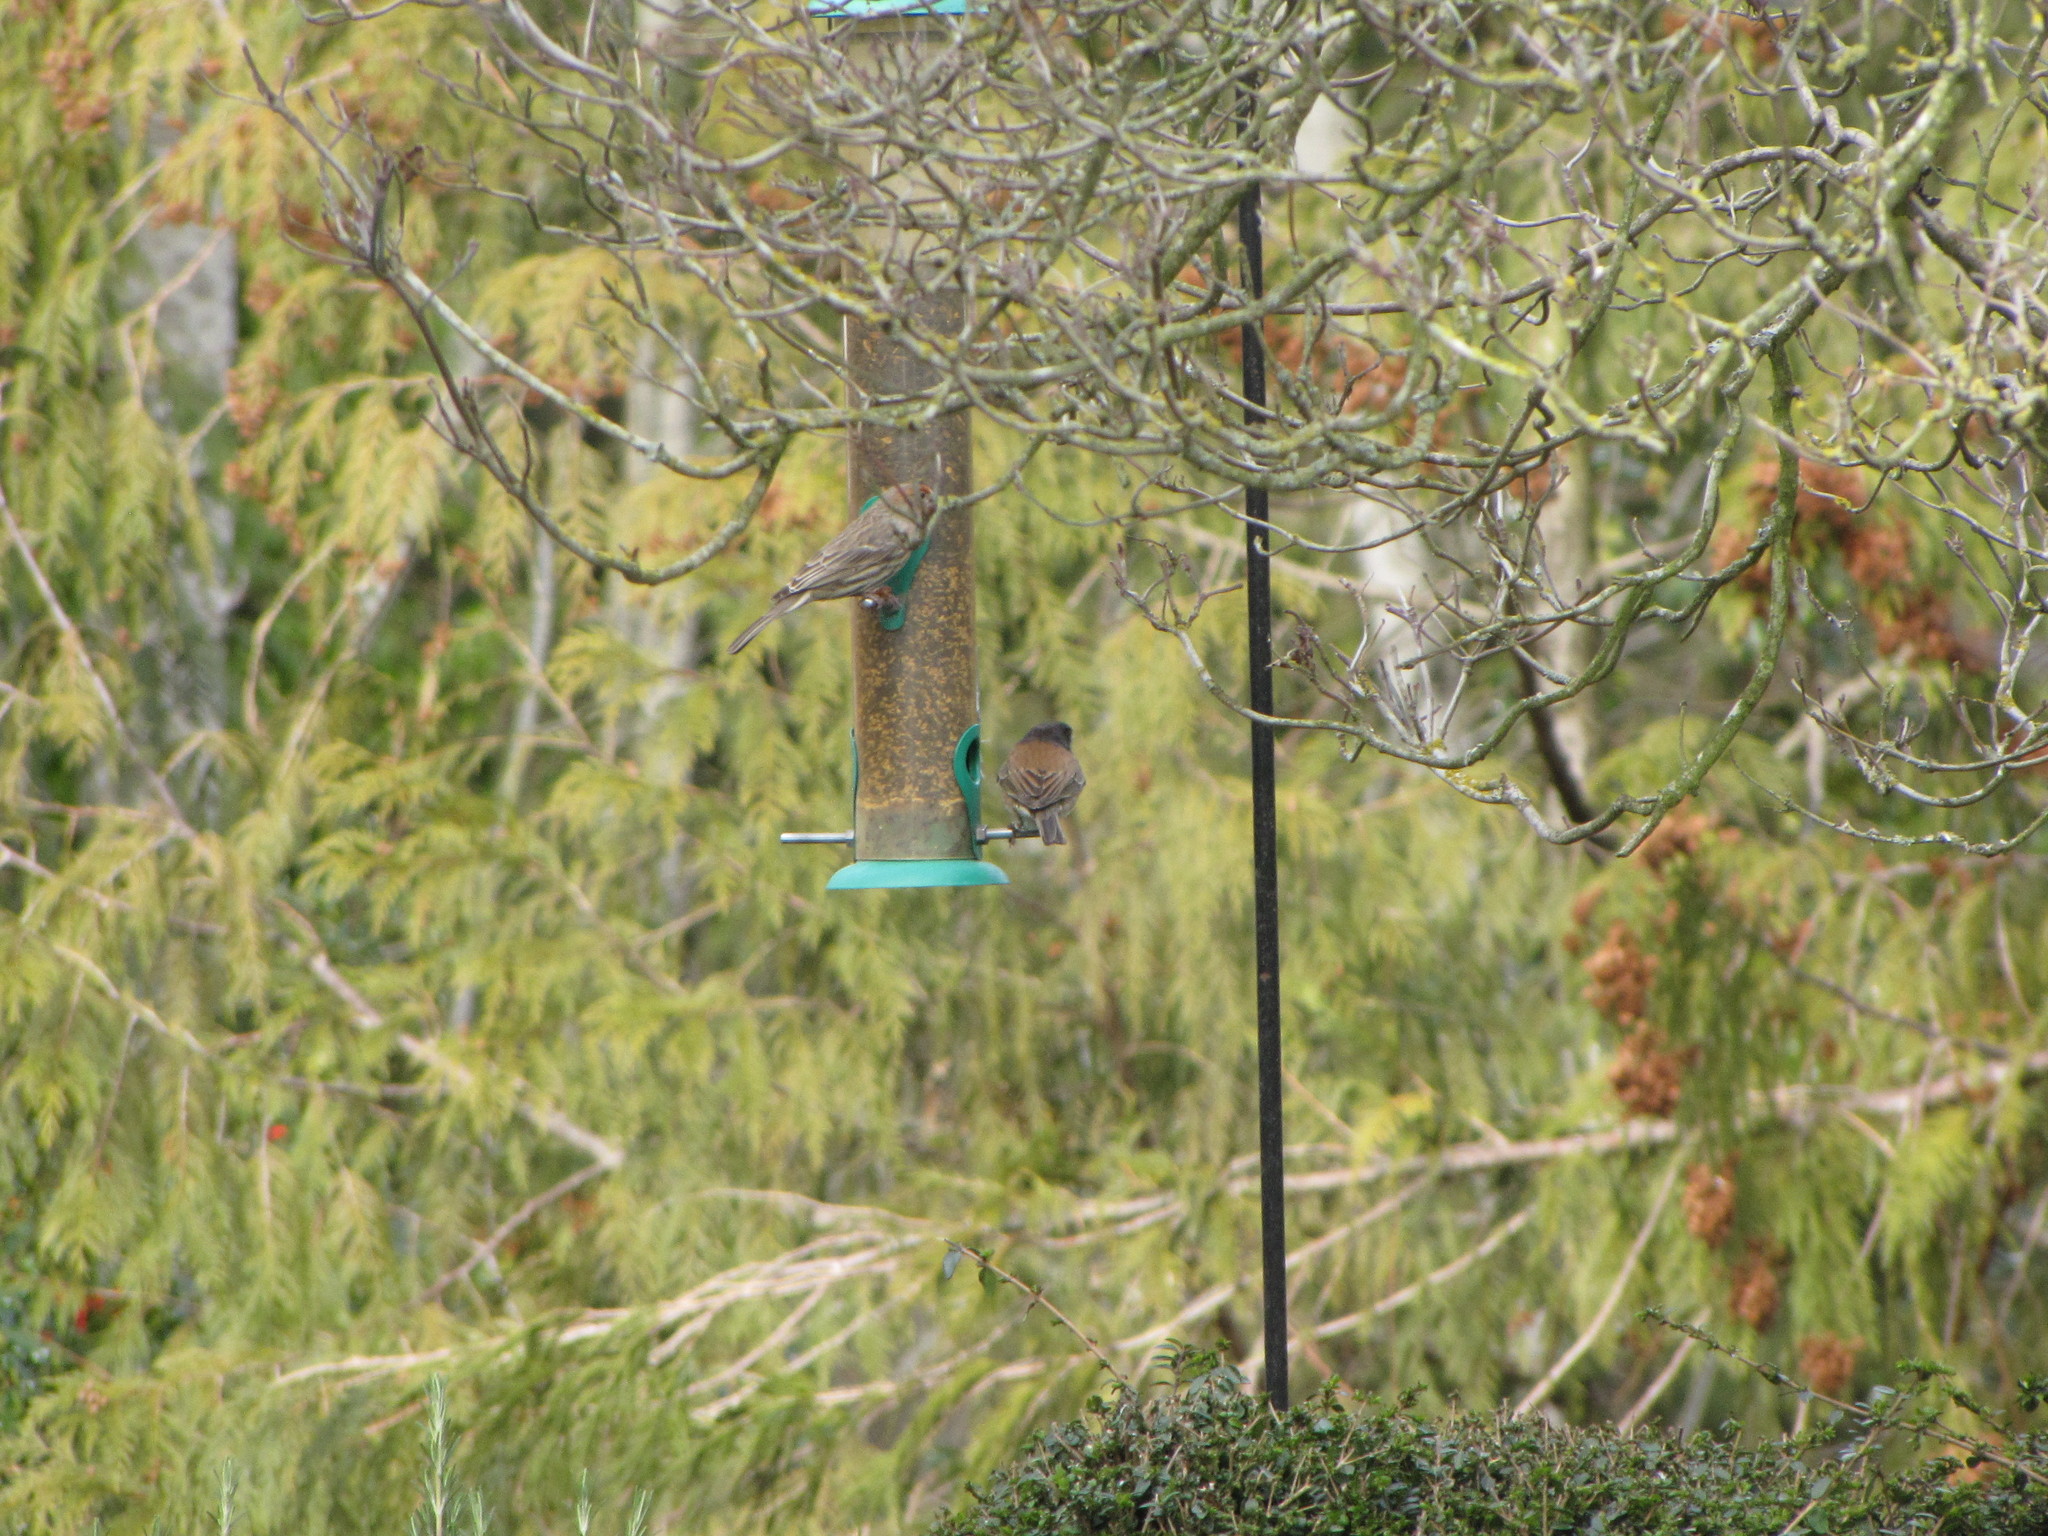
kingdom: Animalia
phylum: Chordata
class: Aves
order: Passeriformes
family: Fringillidae
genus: Haemorhous
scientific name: Haemorhous mexicanus
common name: House finch
